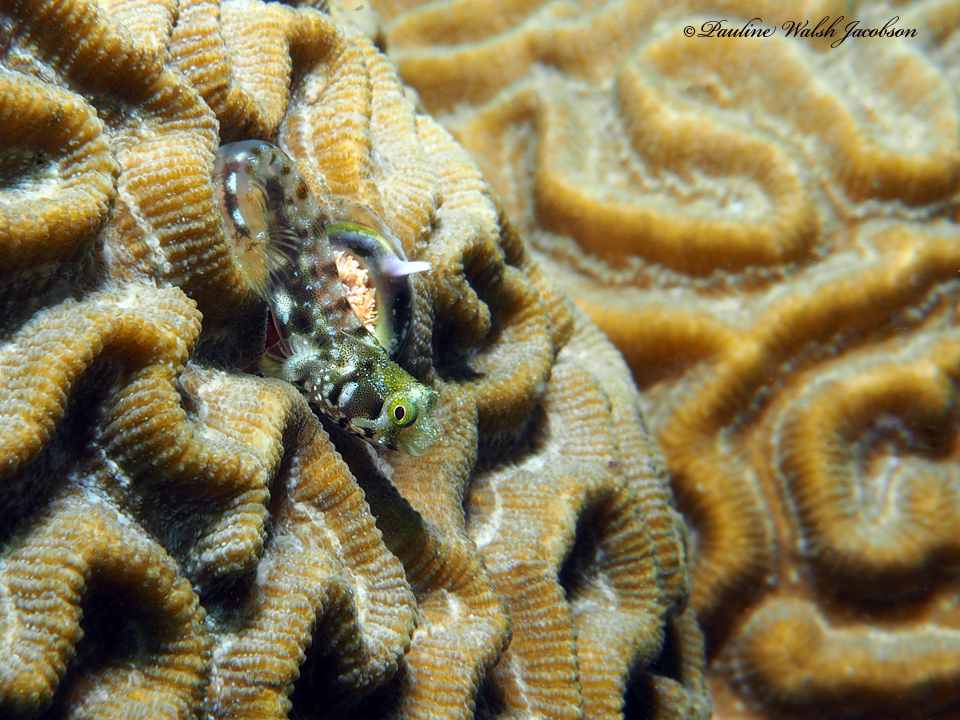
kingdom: Animalia
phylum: Chordata
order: Perciformes
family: Chaenopsidae
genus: Acanthemblemaria
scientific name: Acanthemblemaria spinosa
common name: Spinyhead blenny
